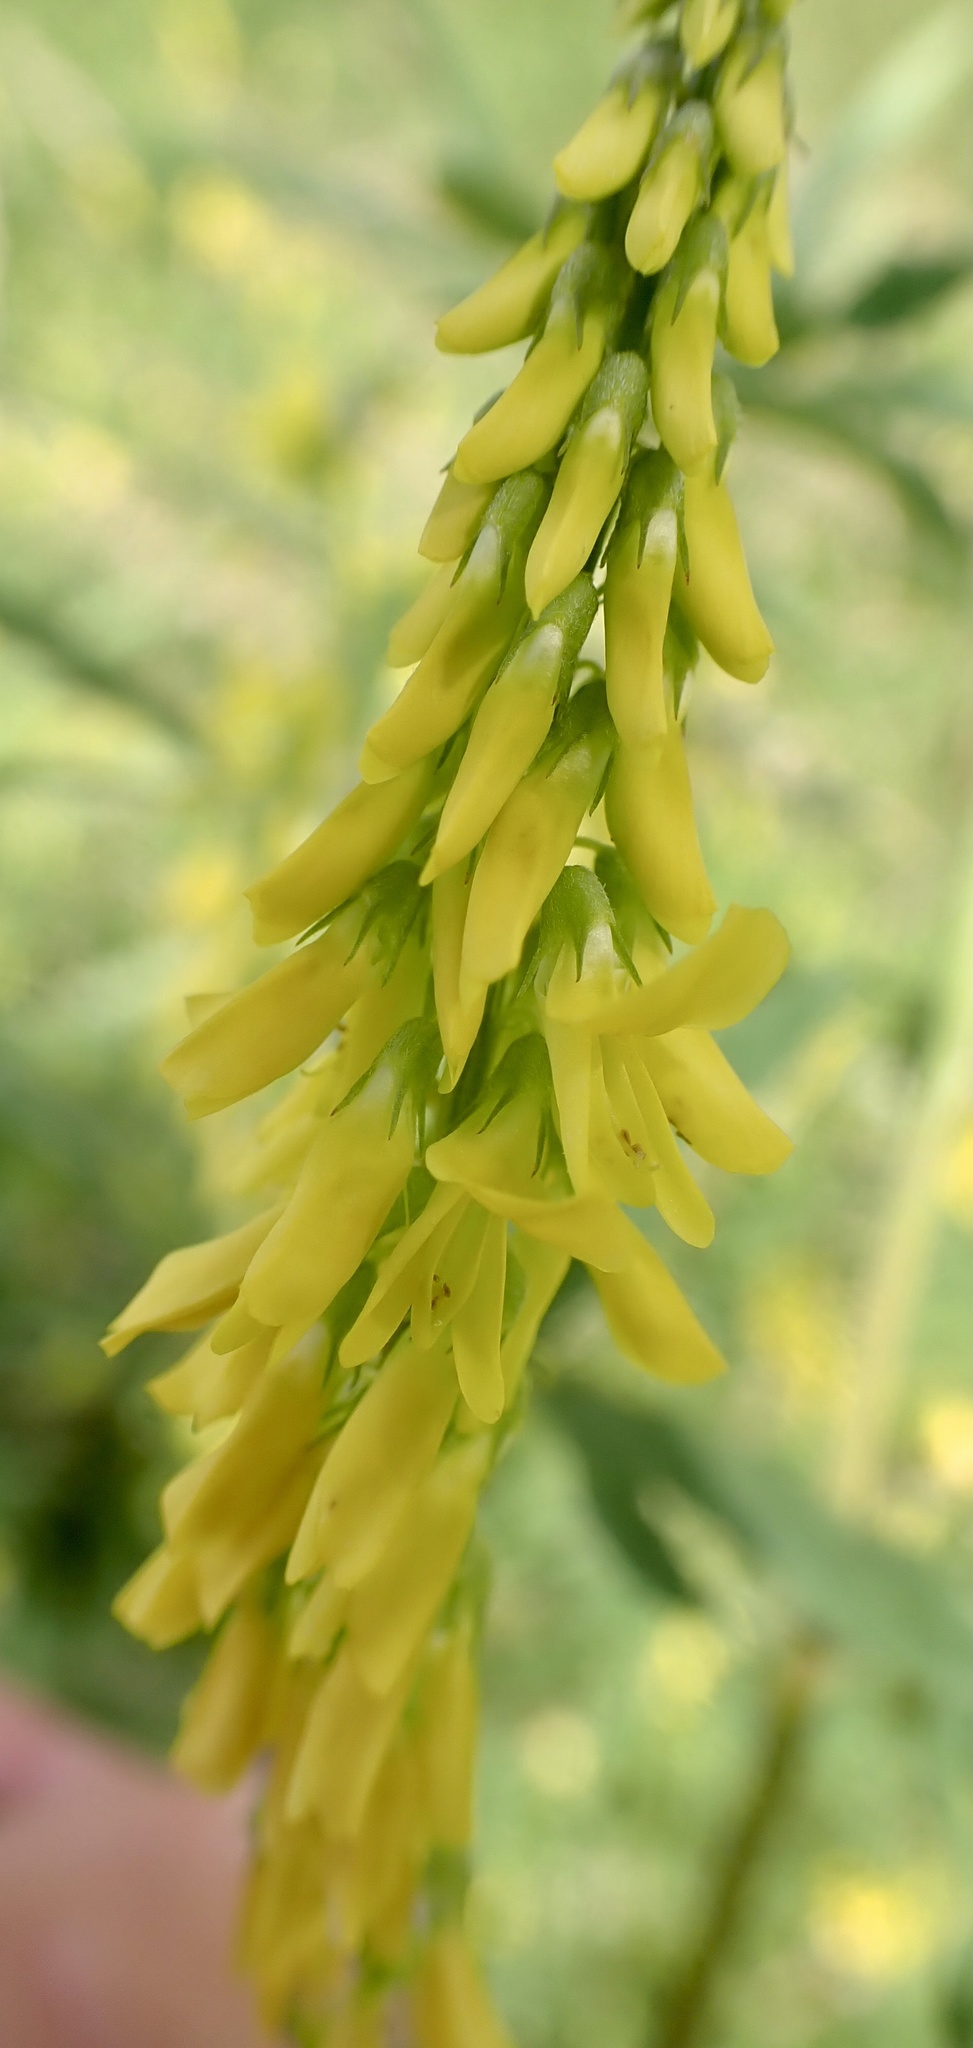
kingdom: Plantae
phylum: Tracheophyta
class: Magnoliopsida
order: Fabales
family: Fabaceae
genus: Melilotus
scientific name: Melilotus altissimus
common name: Tall melilot
